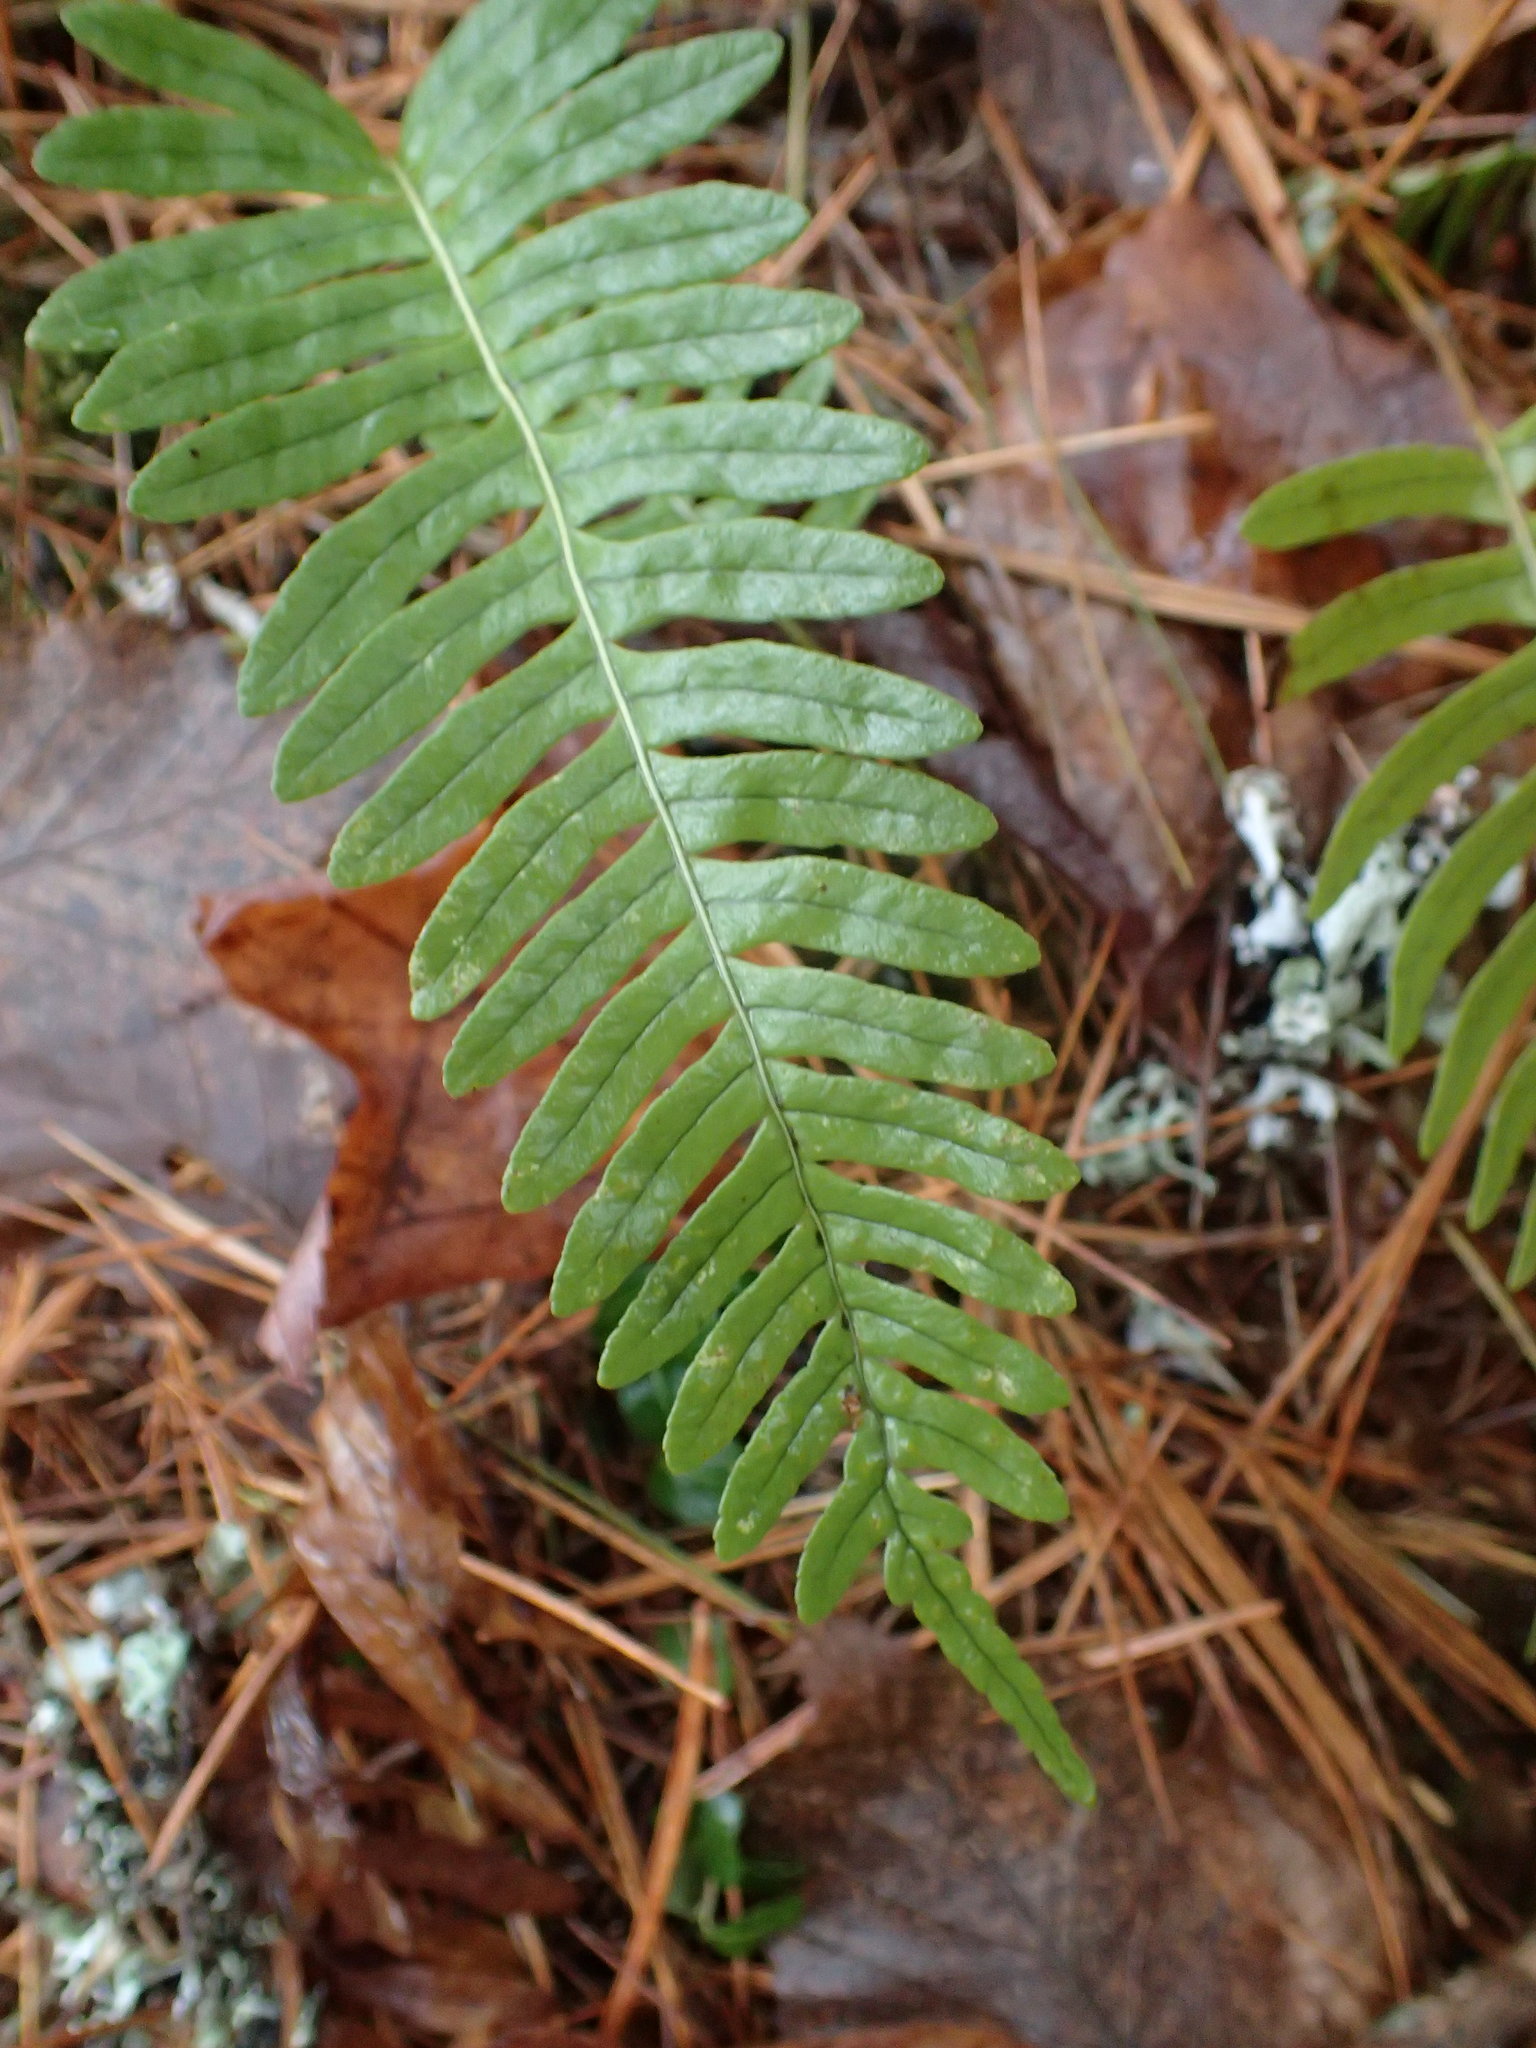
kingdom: Plantae
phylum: Tracheophyta
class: Polypodiopsida
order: Polypodiales
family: Polypodiaceae
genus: Polypodium
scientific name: Polypodium virginianum
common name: American wall fern
